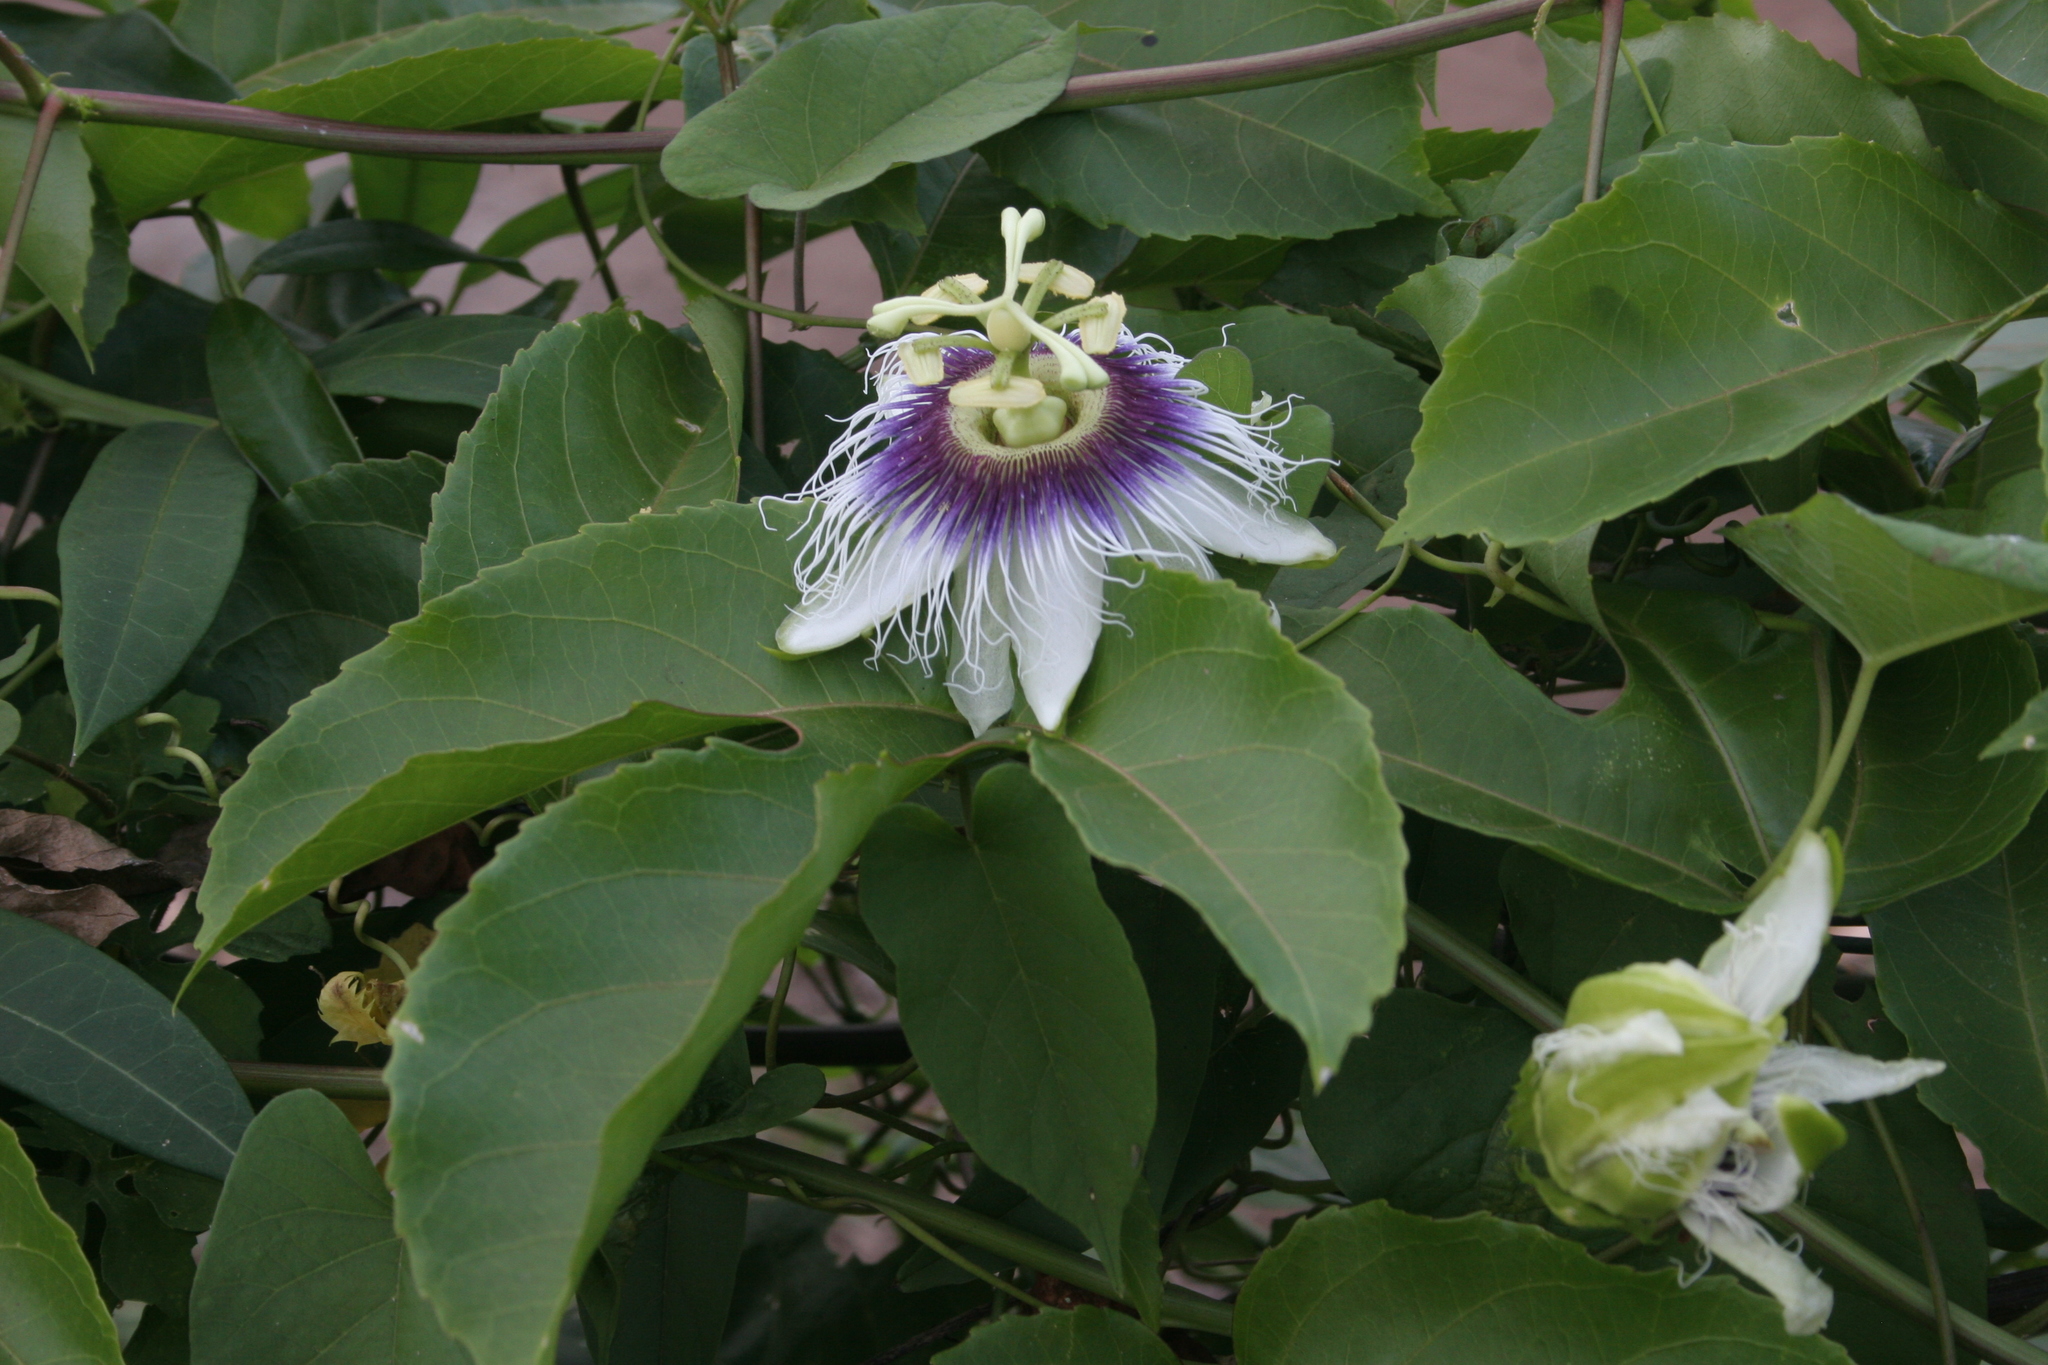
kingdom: Plantae
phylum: Tracheophyta
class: Magnoliopsida
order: Malpighiales
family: Passifloraceae
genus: Passiflora
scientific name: Passiflora edulis
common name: Purple granadilla
